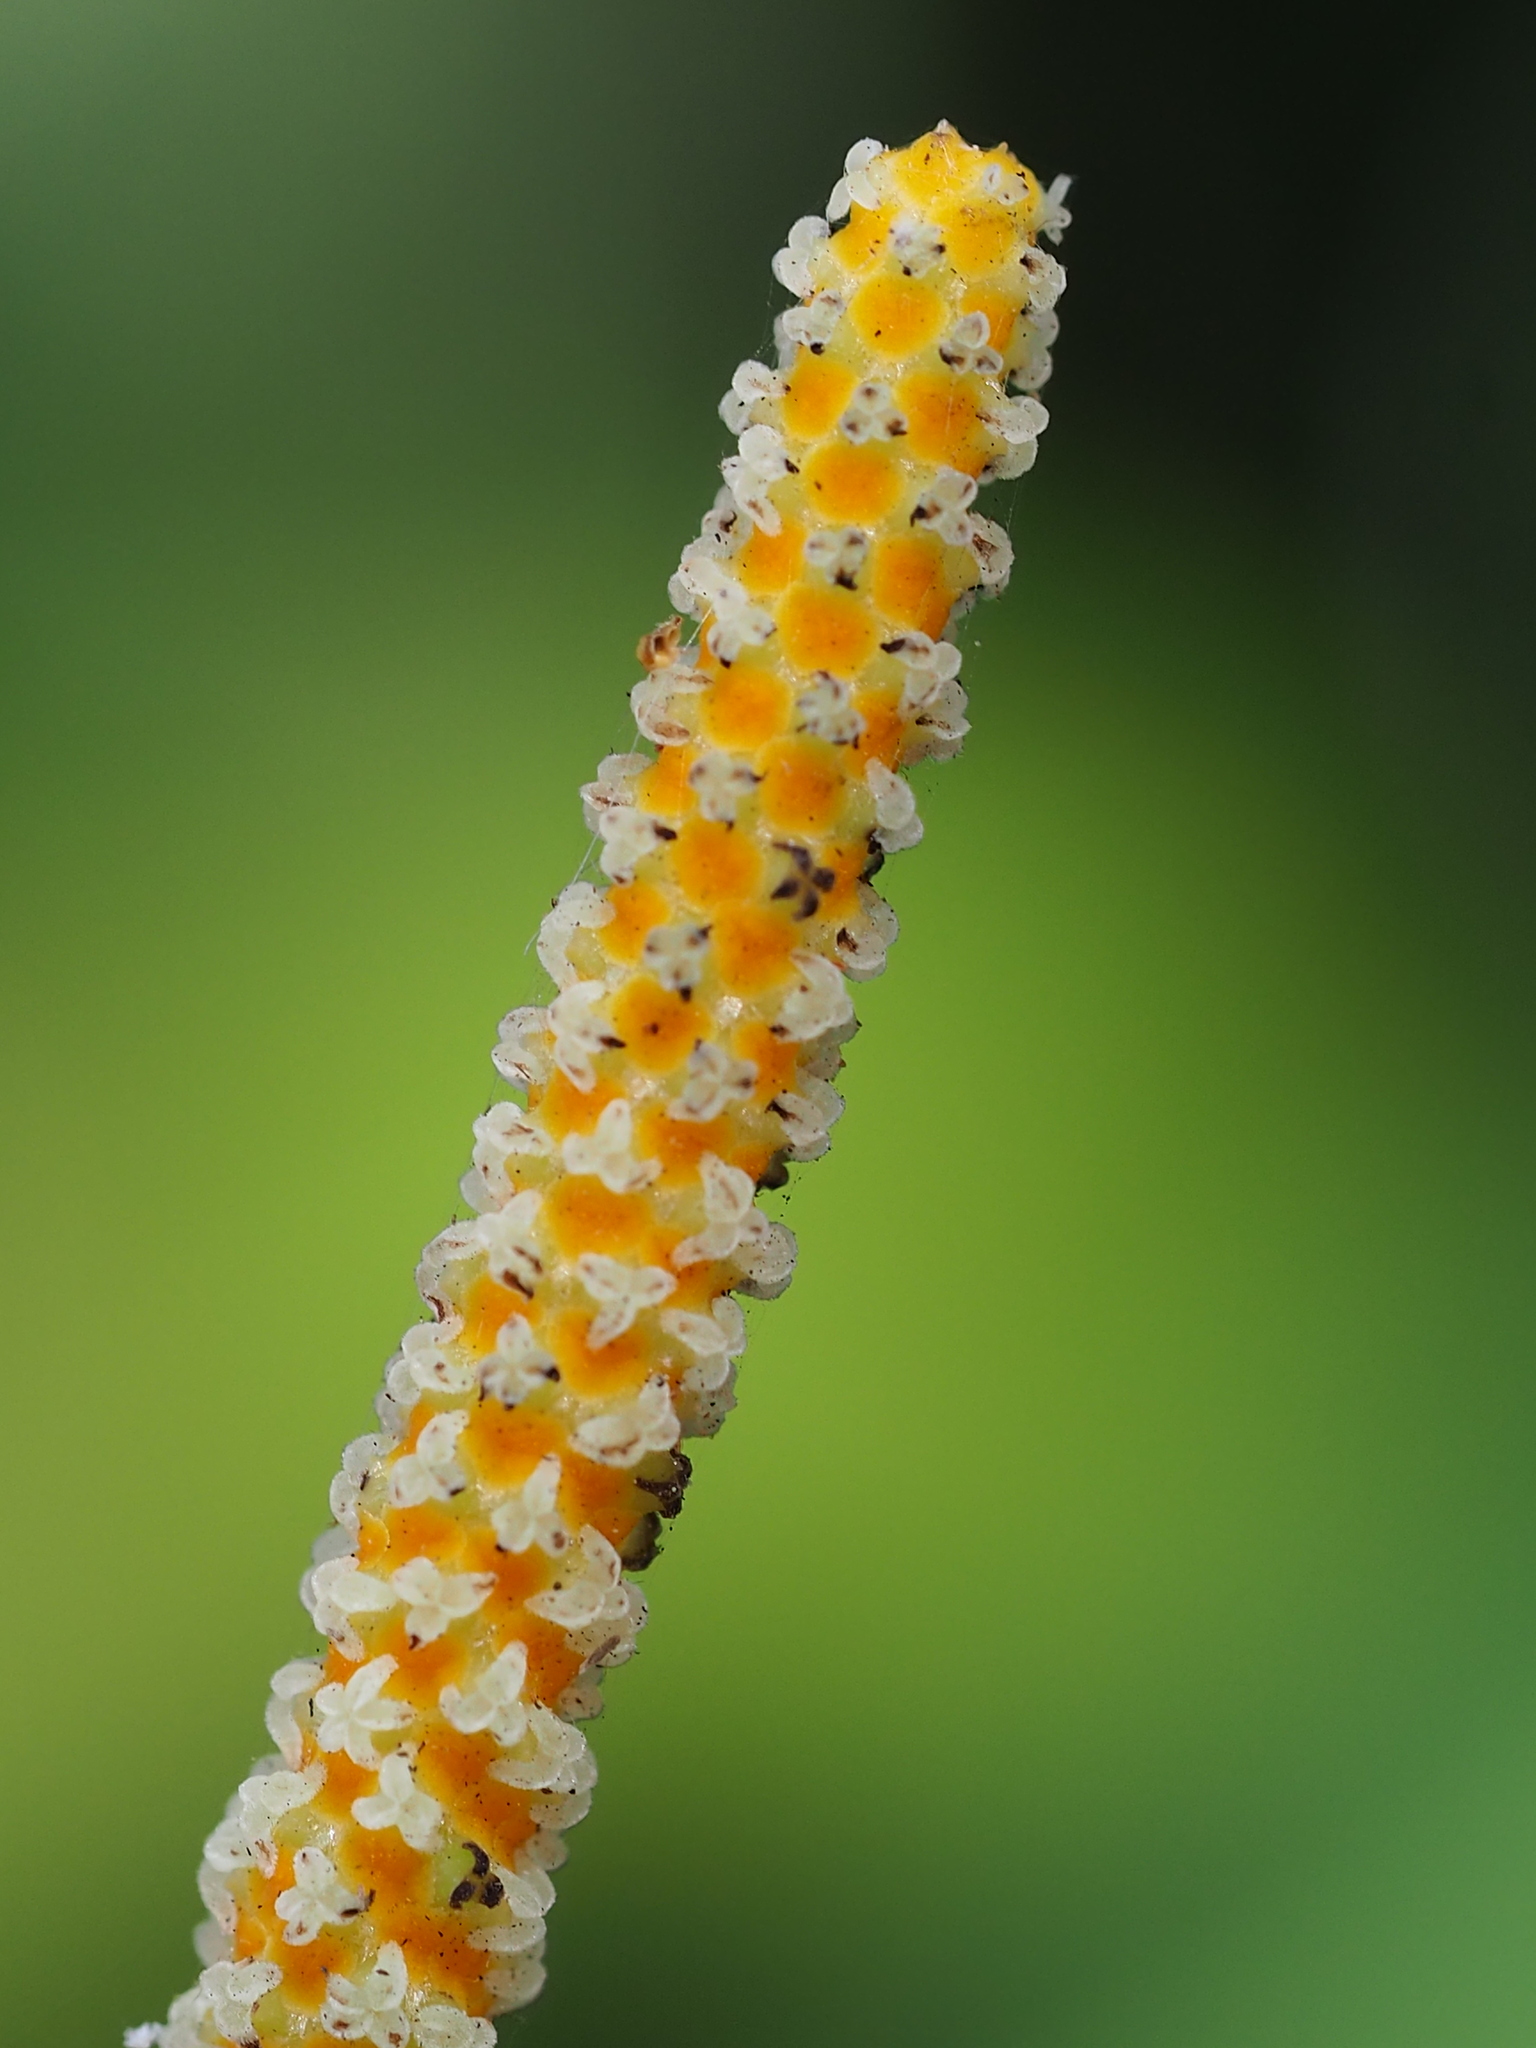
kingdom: Plantae
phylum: Tracheophyta
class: Magnoliopsida
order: Piperales
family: Piperaceae
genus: Piper
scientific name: Piper kadsura
